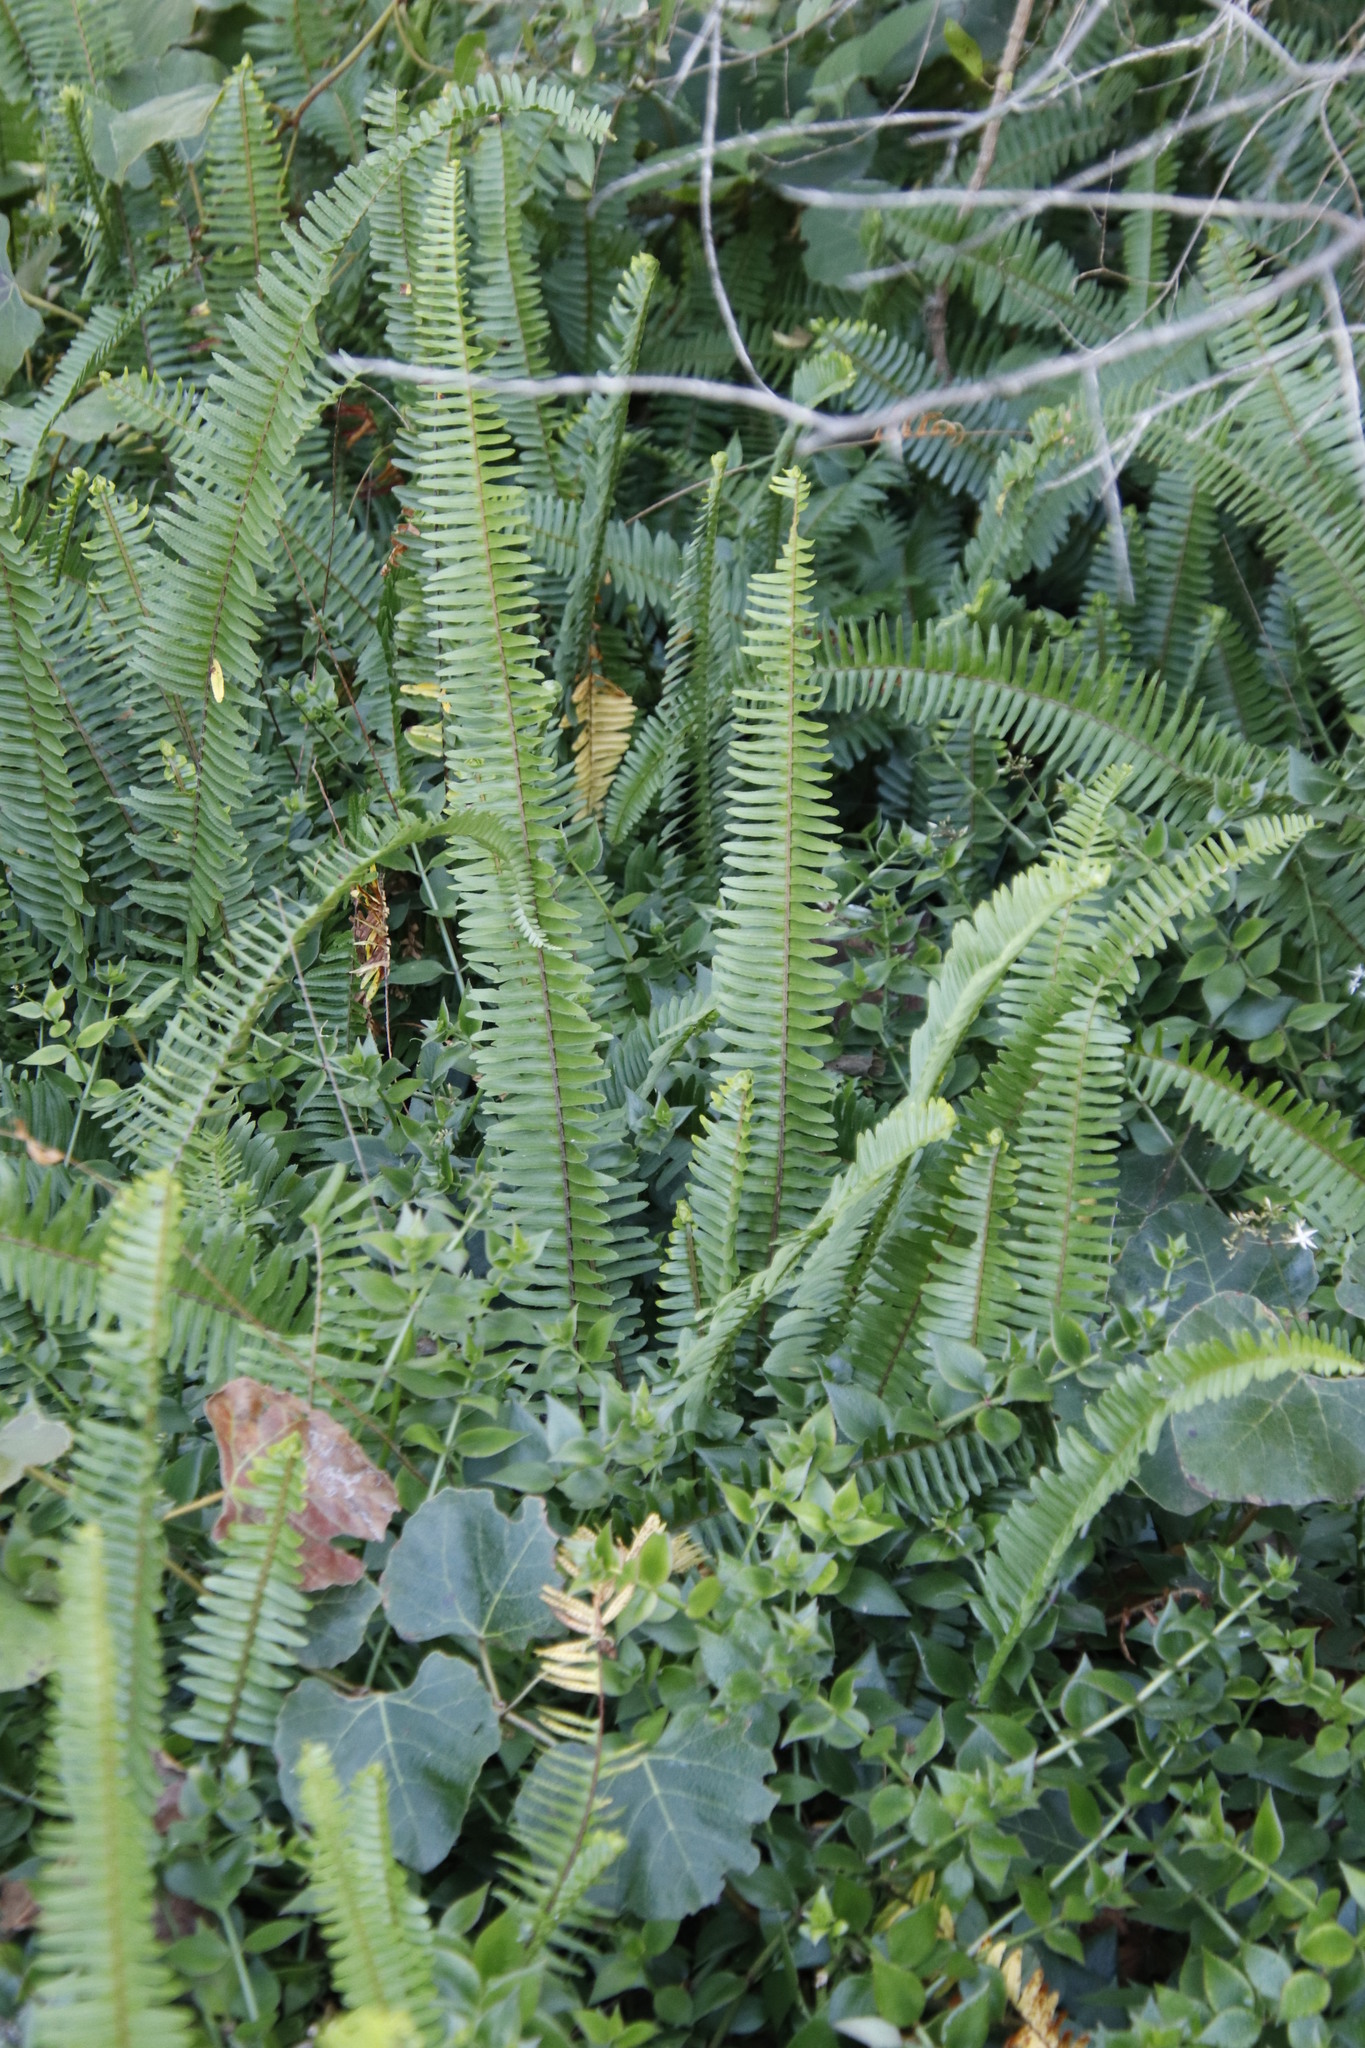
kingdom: Plantae
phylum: Tracheophyta
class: Polypodiopsida
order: Polypodiales
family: Nephrolepidaceae
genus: Nephrolepis
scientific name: Nephrolepis cordifolia
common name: Narrow swordfern
